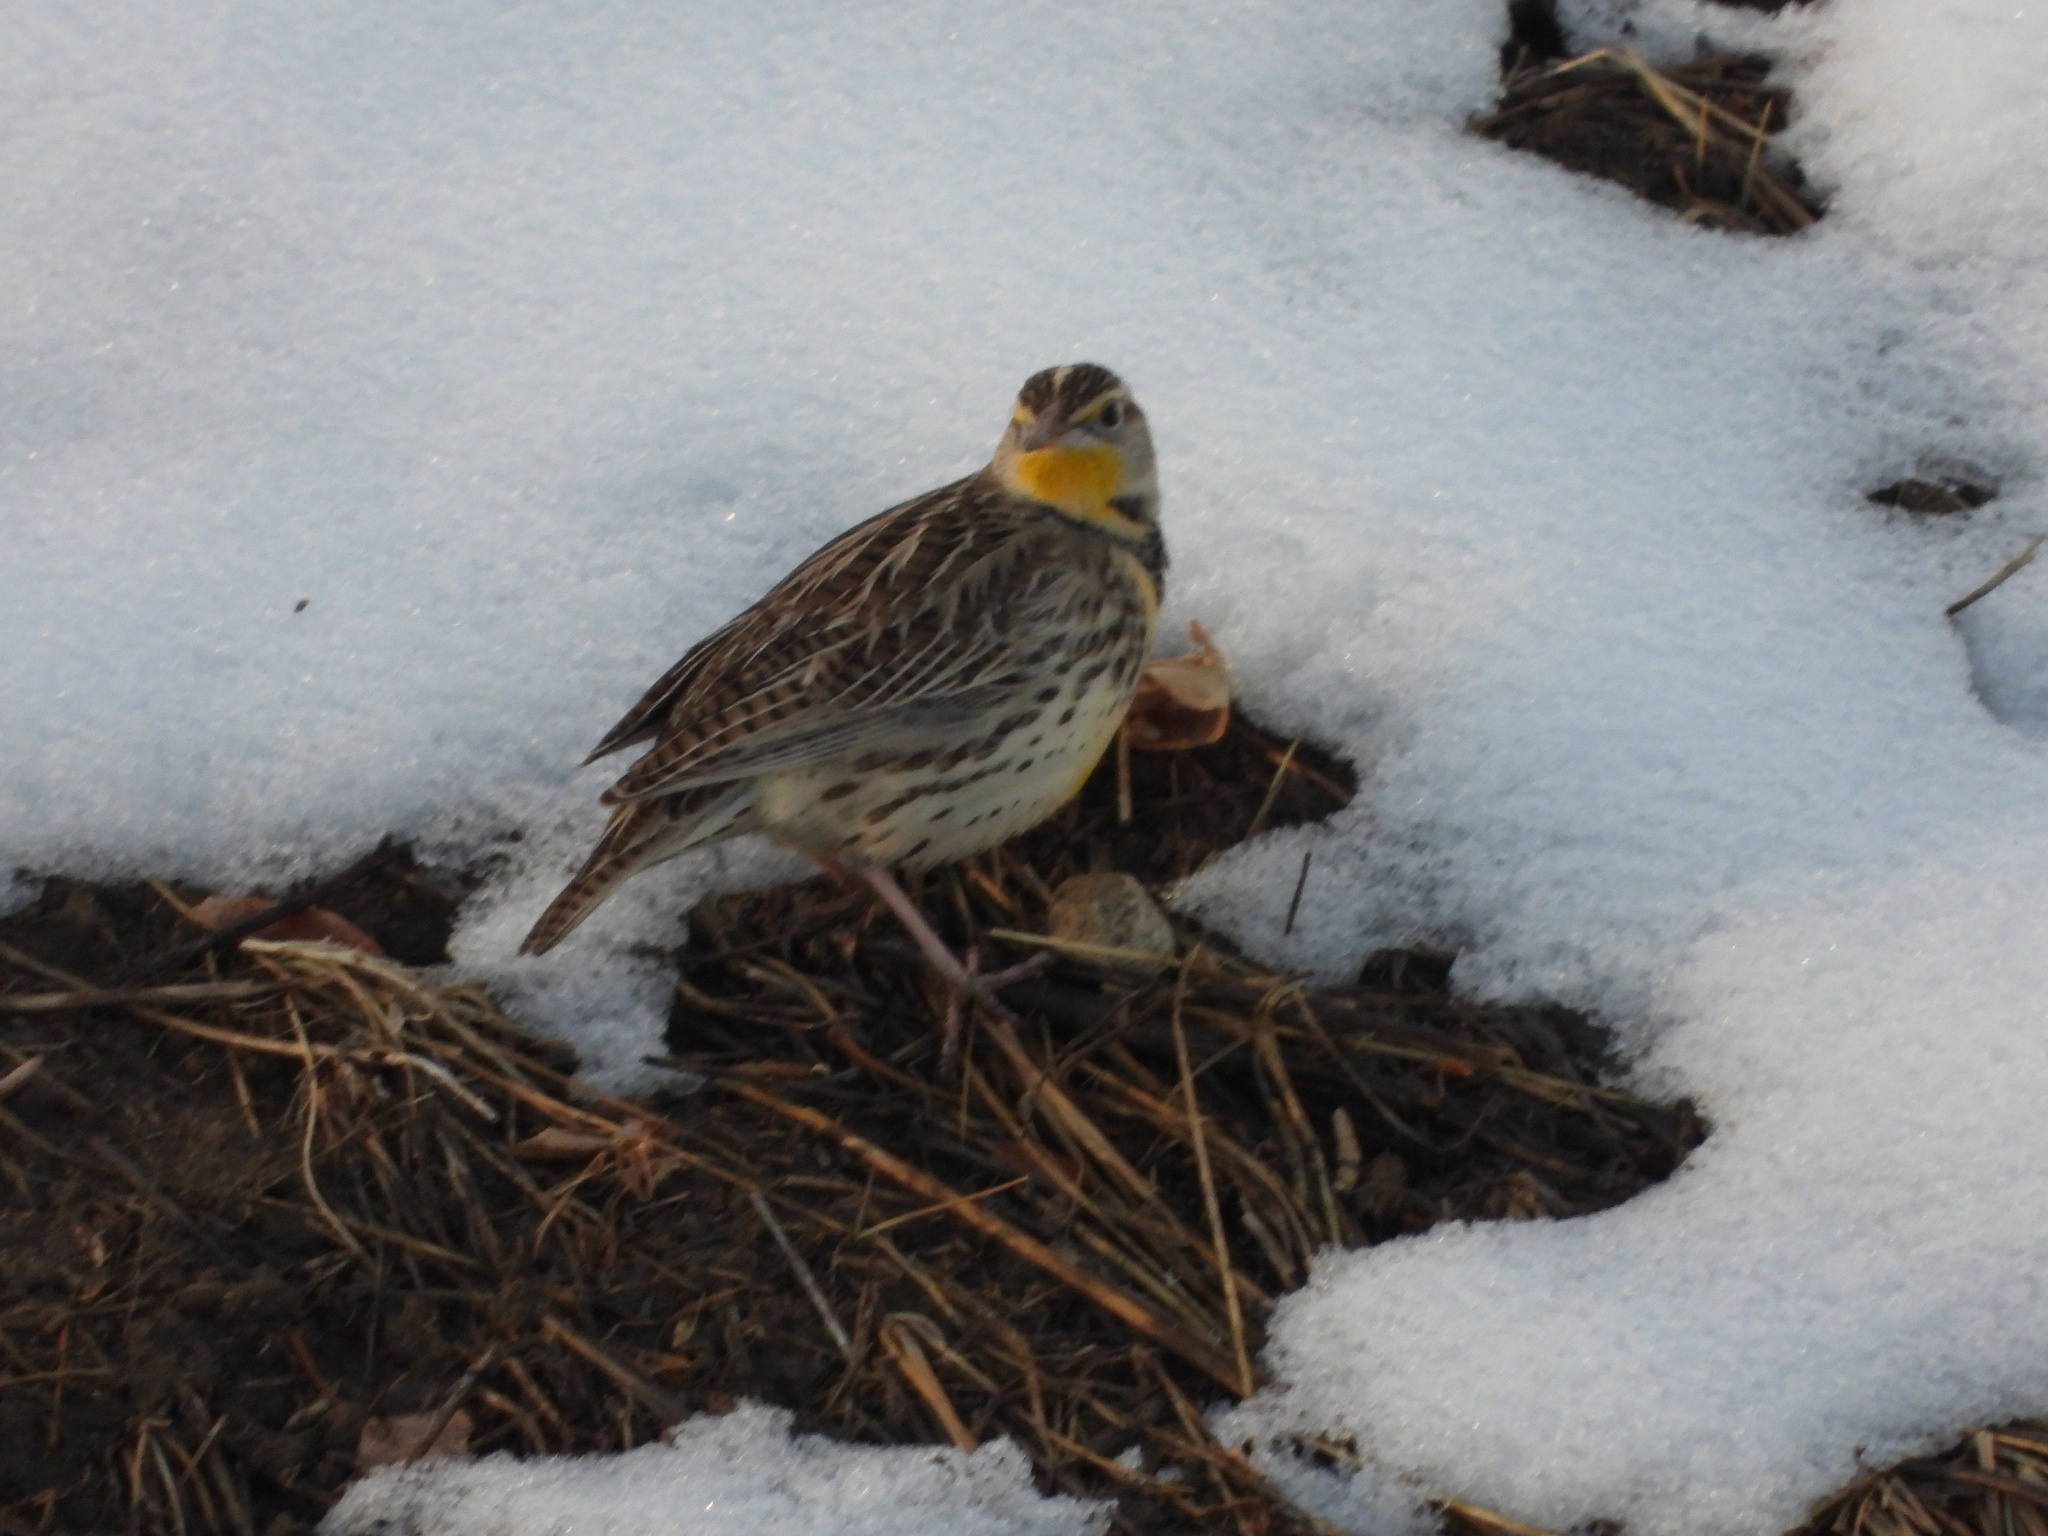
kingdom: Animalia
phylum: Chordata
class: Aves
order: Passeriformes
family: Icteridae
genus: Sturnella
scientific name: Sturnella neglecta
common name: Western meadowlark
